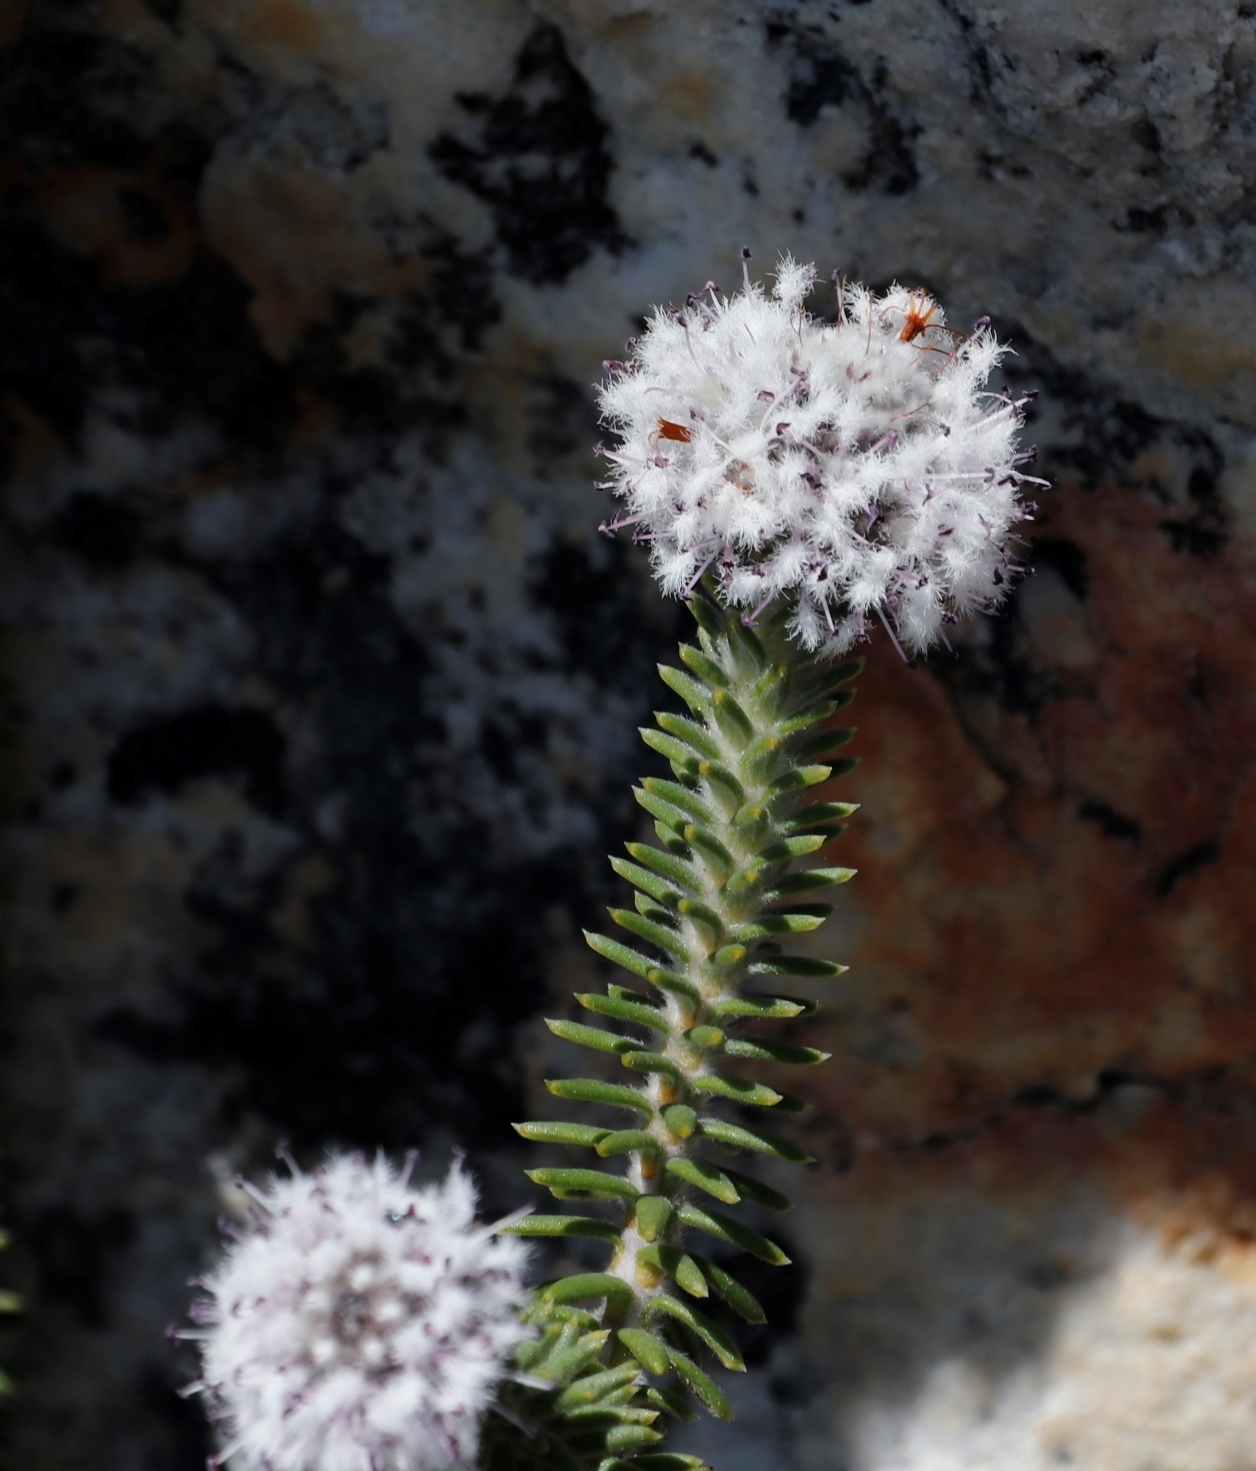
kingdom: Plantae
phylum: Tracheophyta
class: Magnoliopsida
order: Lamiales
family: Stilbaceae
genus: Kogelbergia
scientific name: Kogelbergia verticillata
